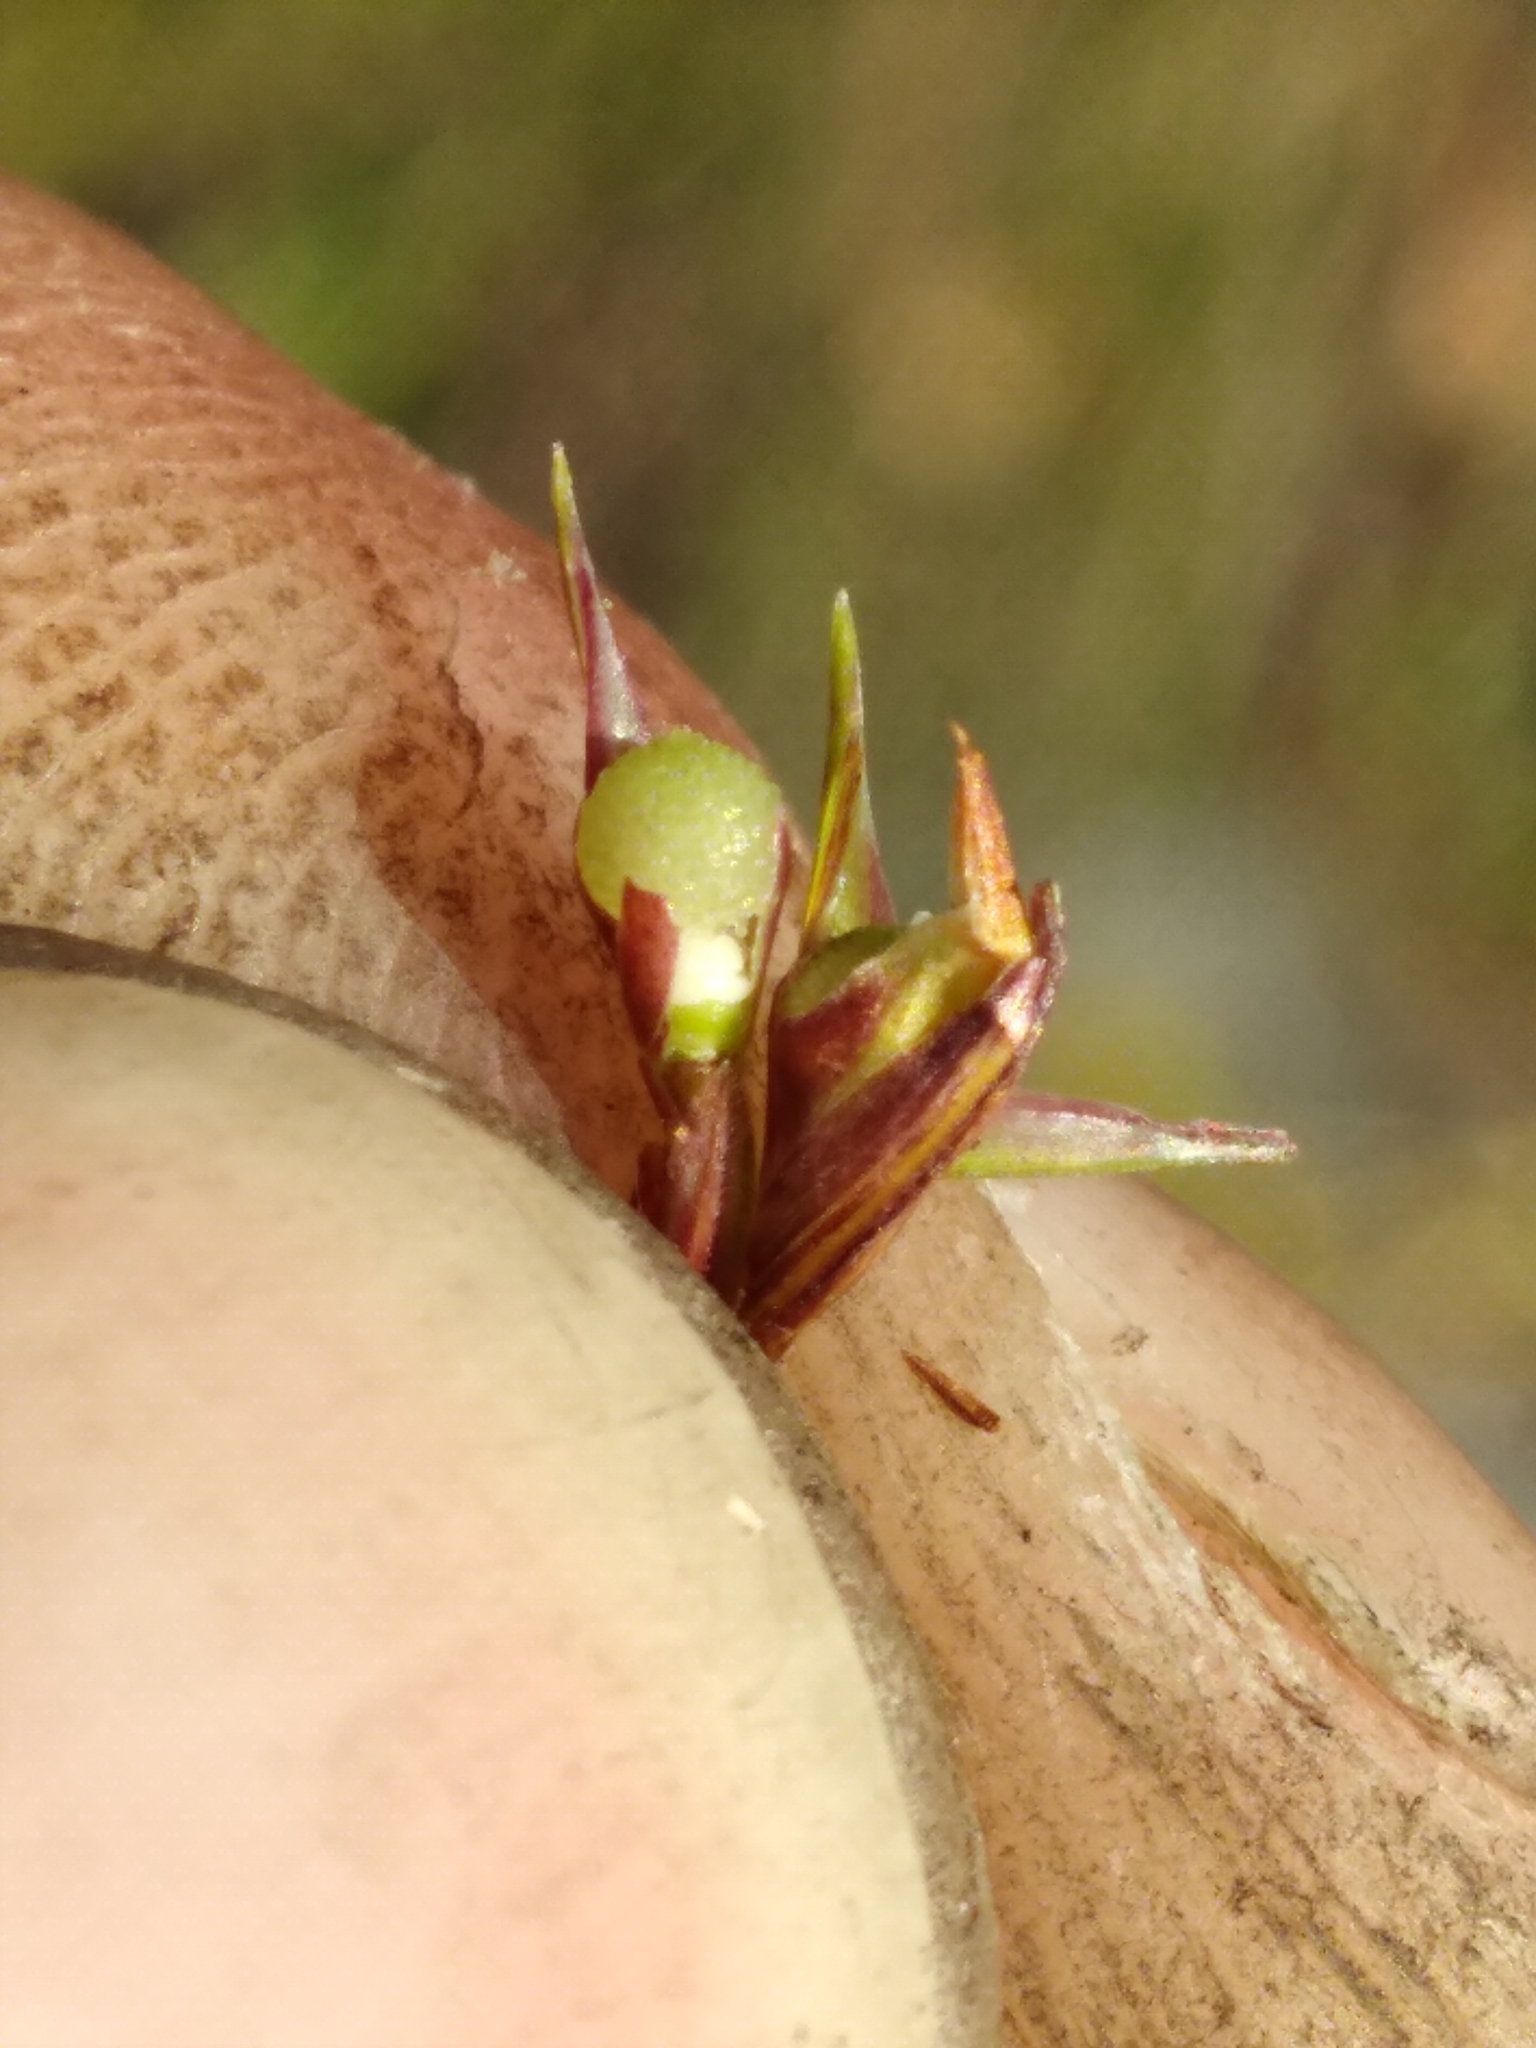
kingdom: Plantae
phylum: Tracheophyta
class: Liliopsida
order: Poales
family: Cyperaceae
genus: Scleria
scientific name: Scleria pauciflora
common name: Few-flowered nutrush
